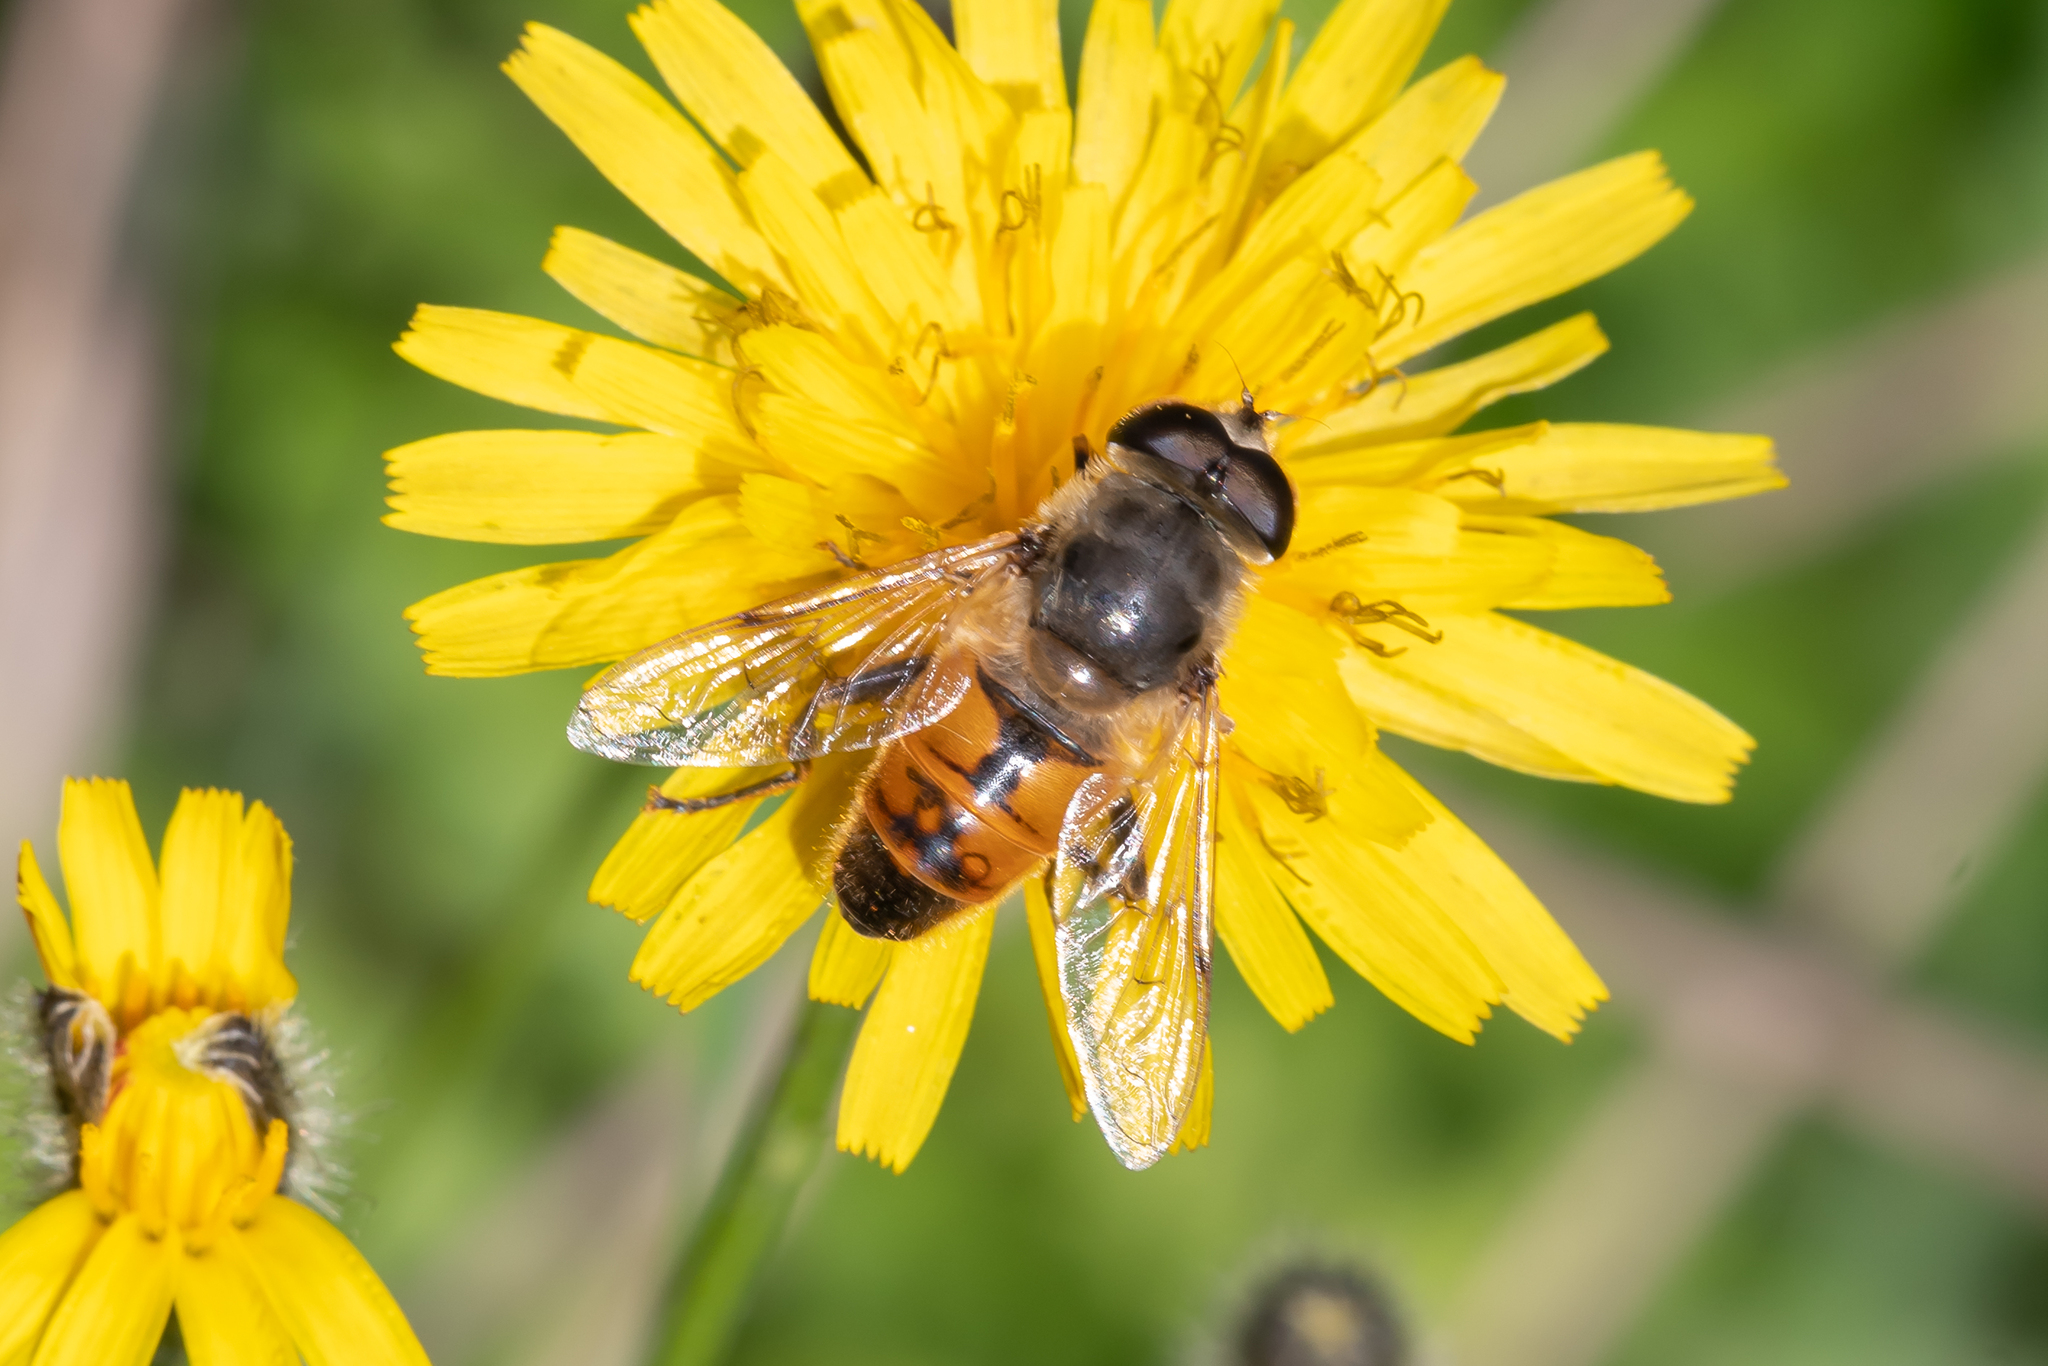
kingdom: Animalia
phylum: Arthropoda
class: Insecta
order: Diptera
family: Syrphidae
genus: Eristalis
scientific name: Eristalis tenax
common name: Drone fly
